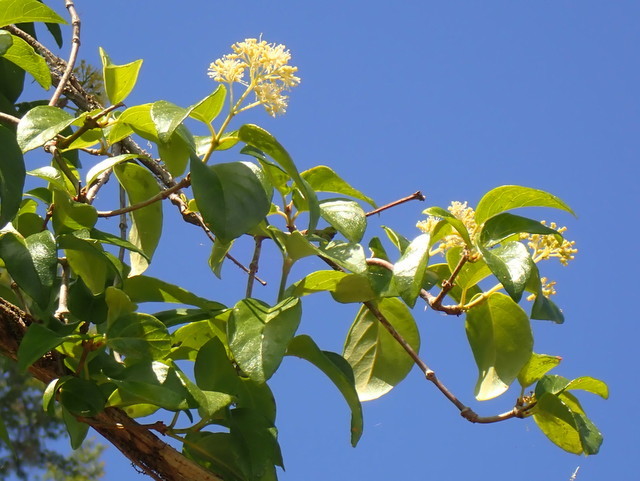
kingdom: Plantae
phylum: Tracheophyta
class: Magnoliopsida
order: Cornales
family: Hydrangeaceae
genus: Hydrangea
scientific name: Hydrangea barbara
